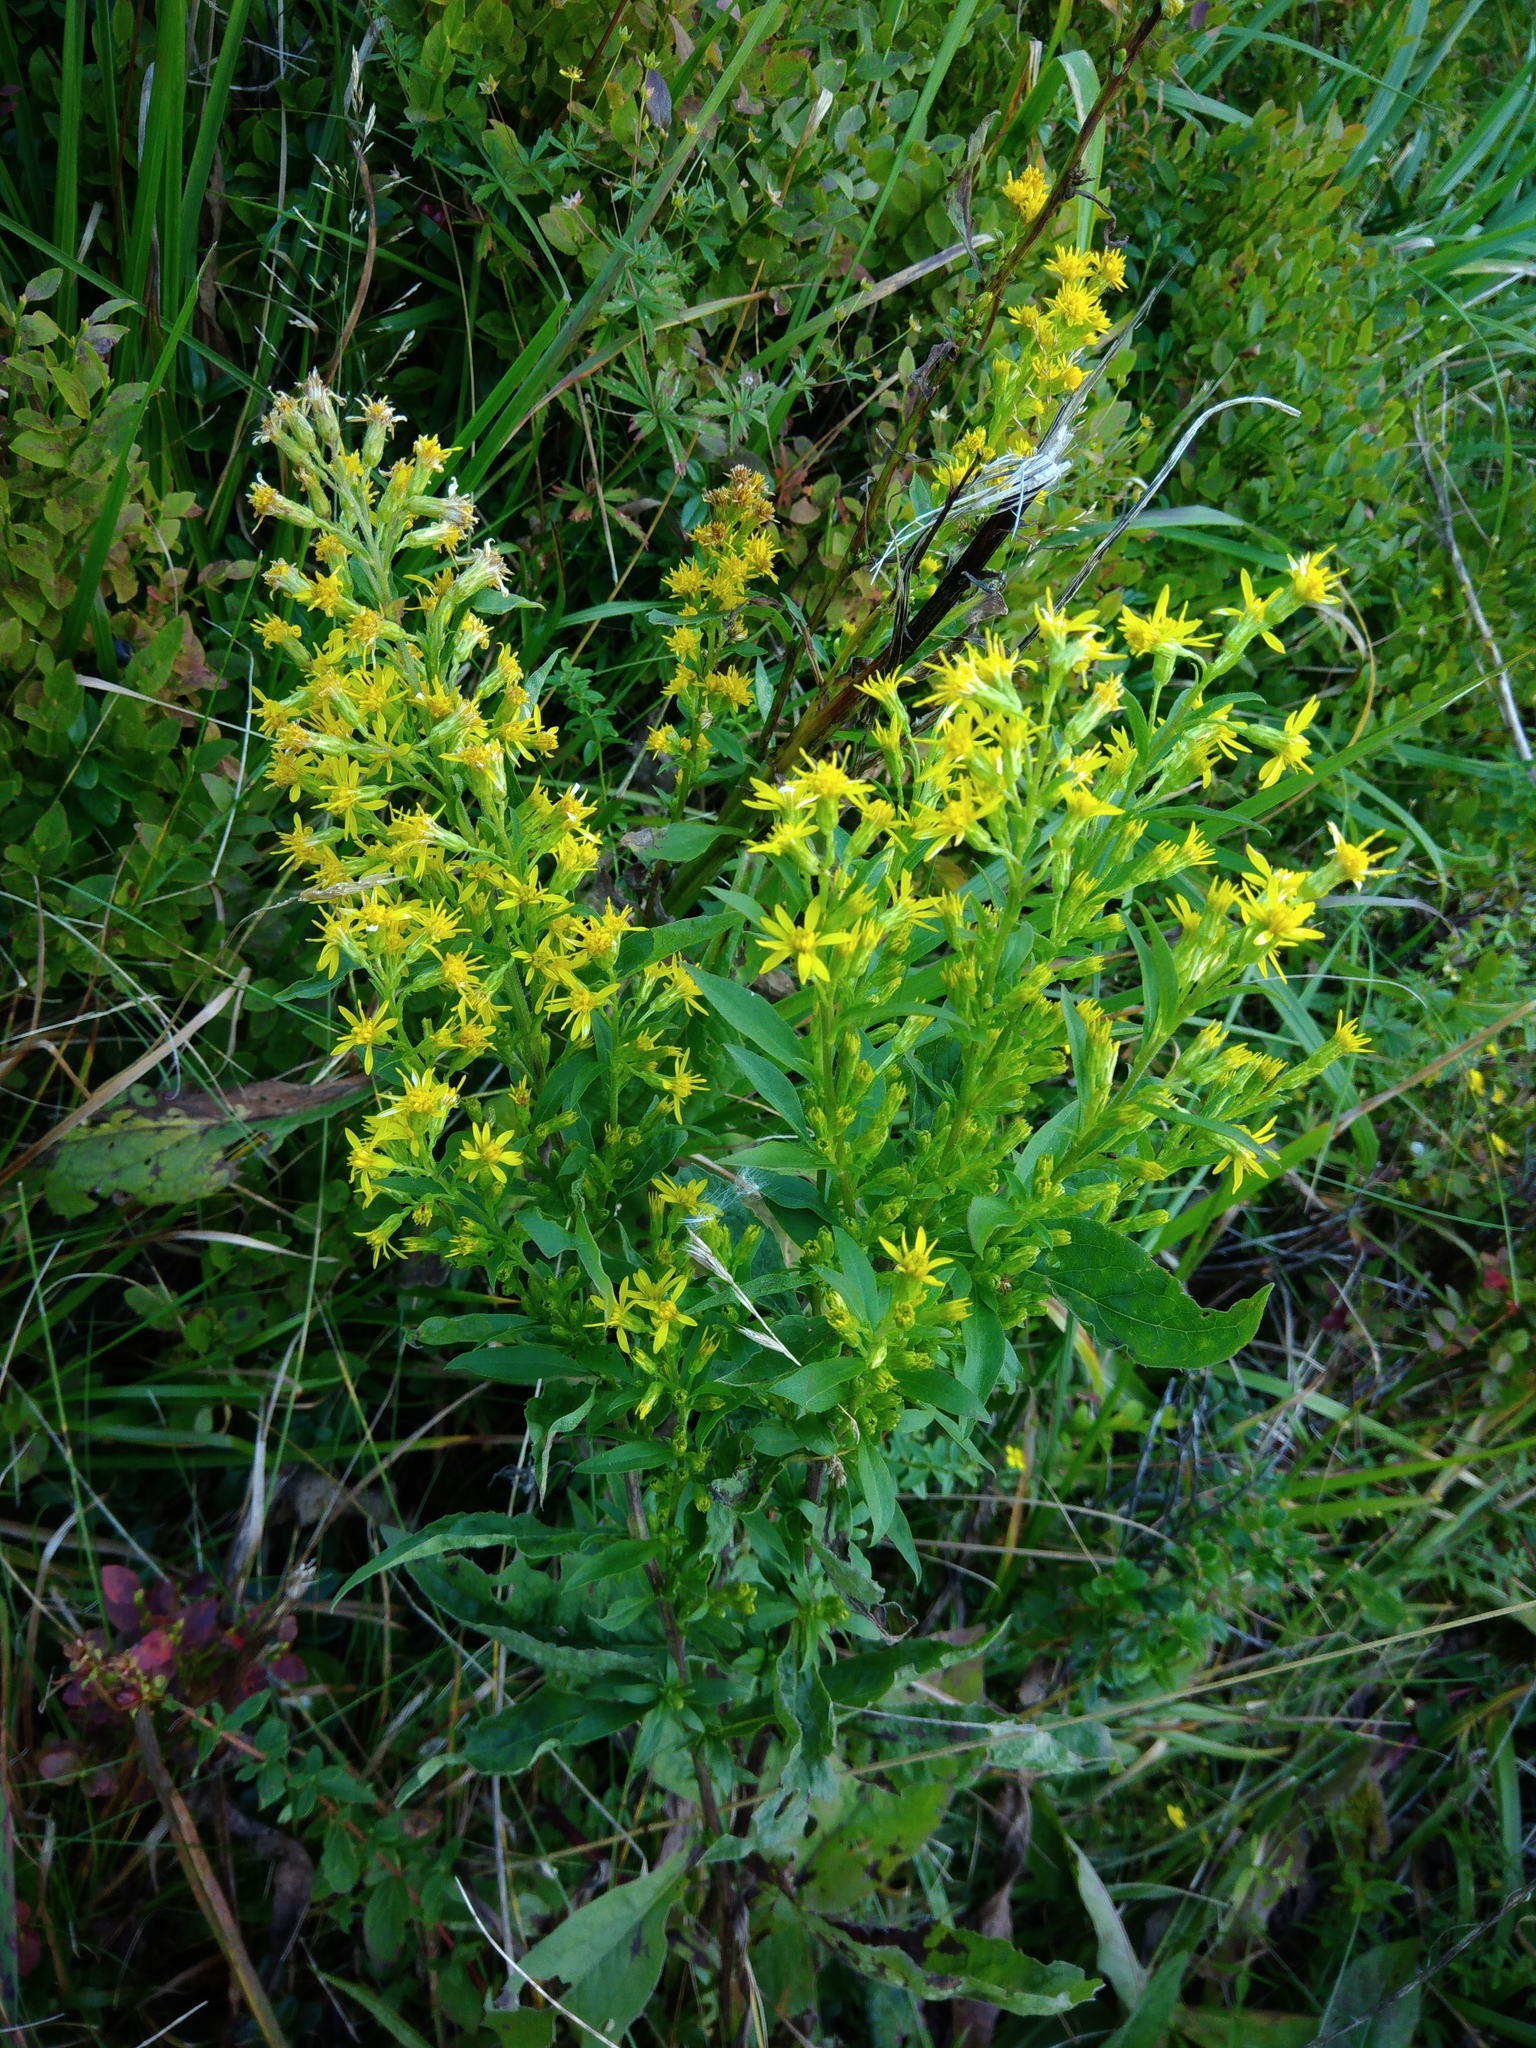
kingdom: Plantae
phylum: Tracheophyta
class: Magnoliopsida
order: Asterales
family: Asteraceae
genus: Solidago
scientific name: Solidago virgaurea
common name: Goldenrod
